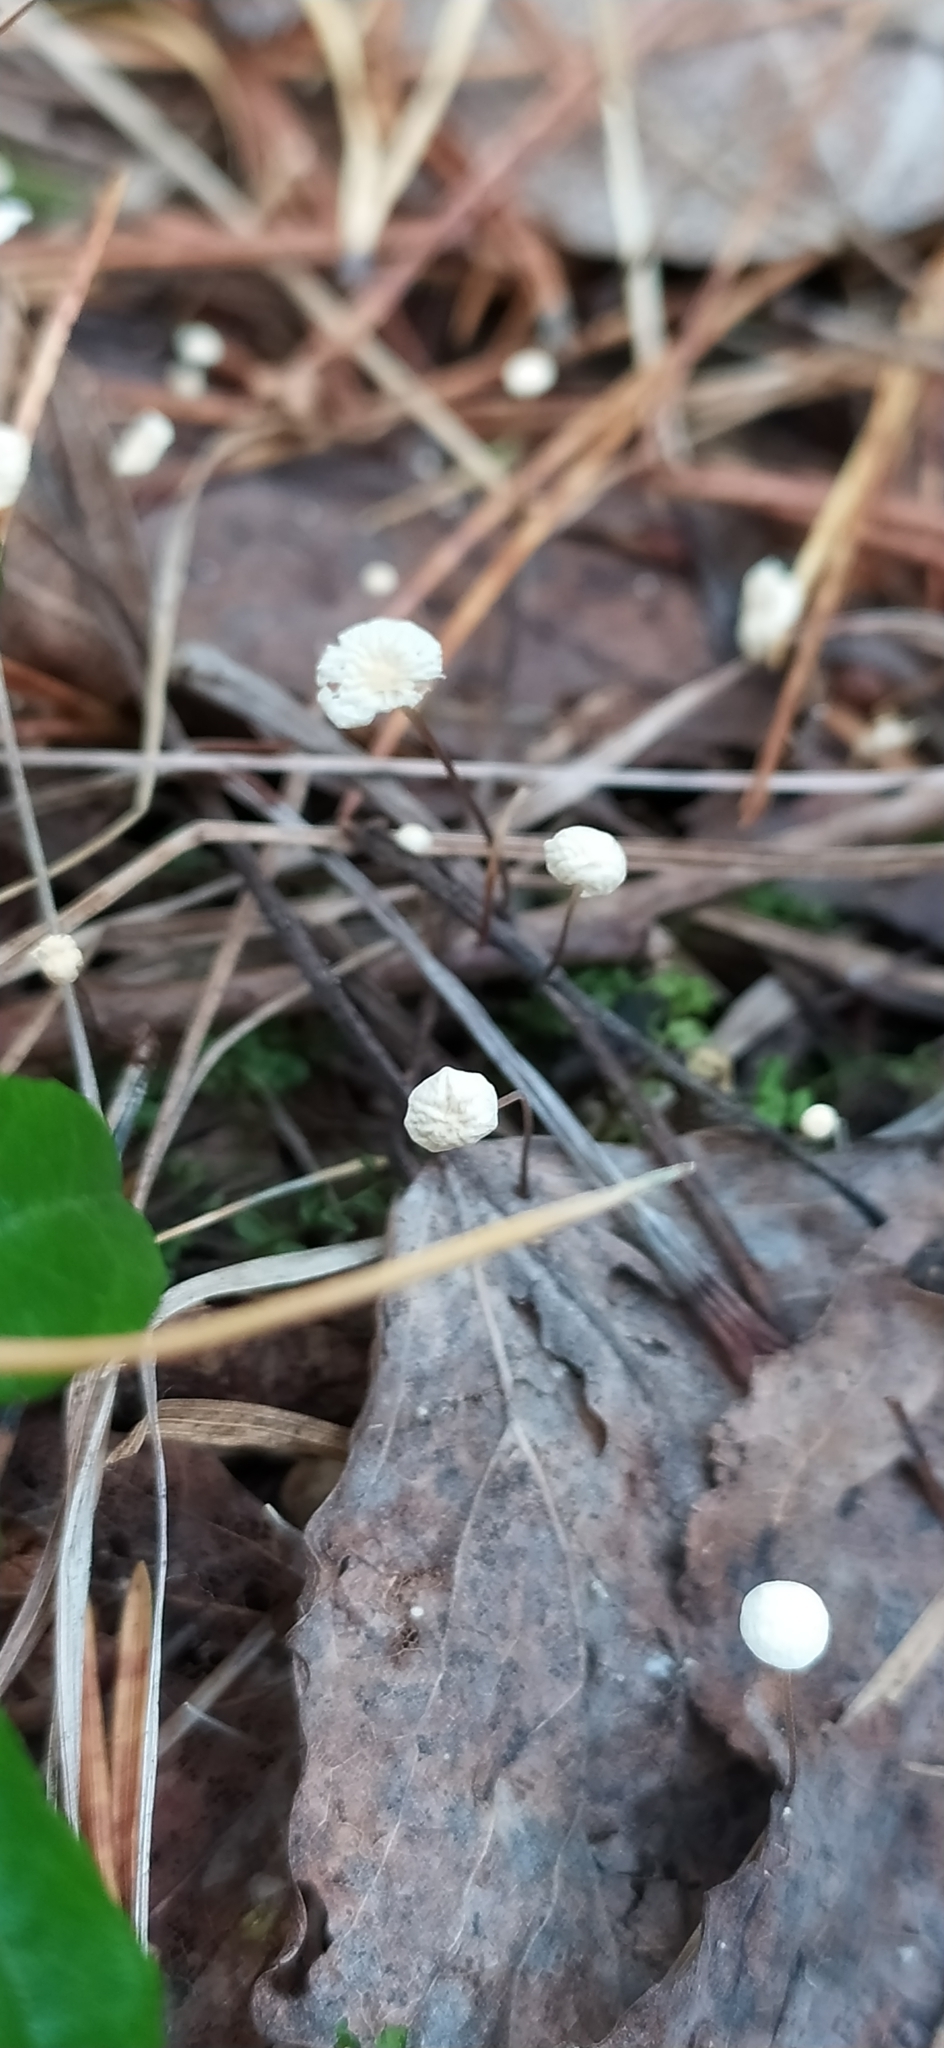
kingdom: Fungi
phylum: Basidiomycota
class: Agaricomycetes
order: Agaricales
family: Physalacriaceae
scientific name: Physalacriaceae
